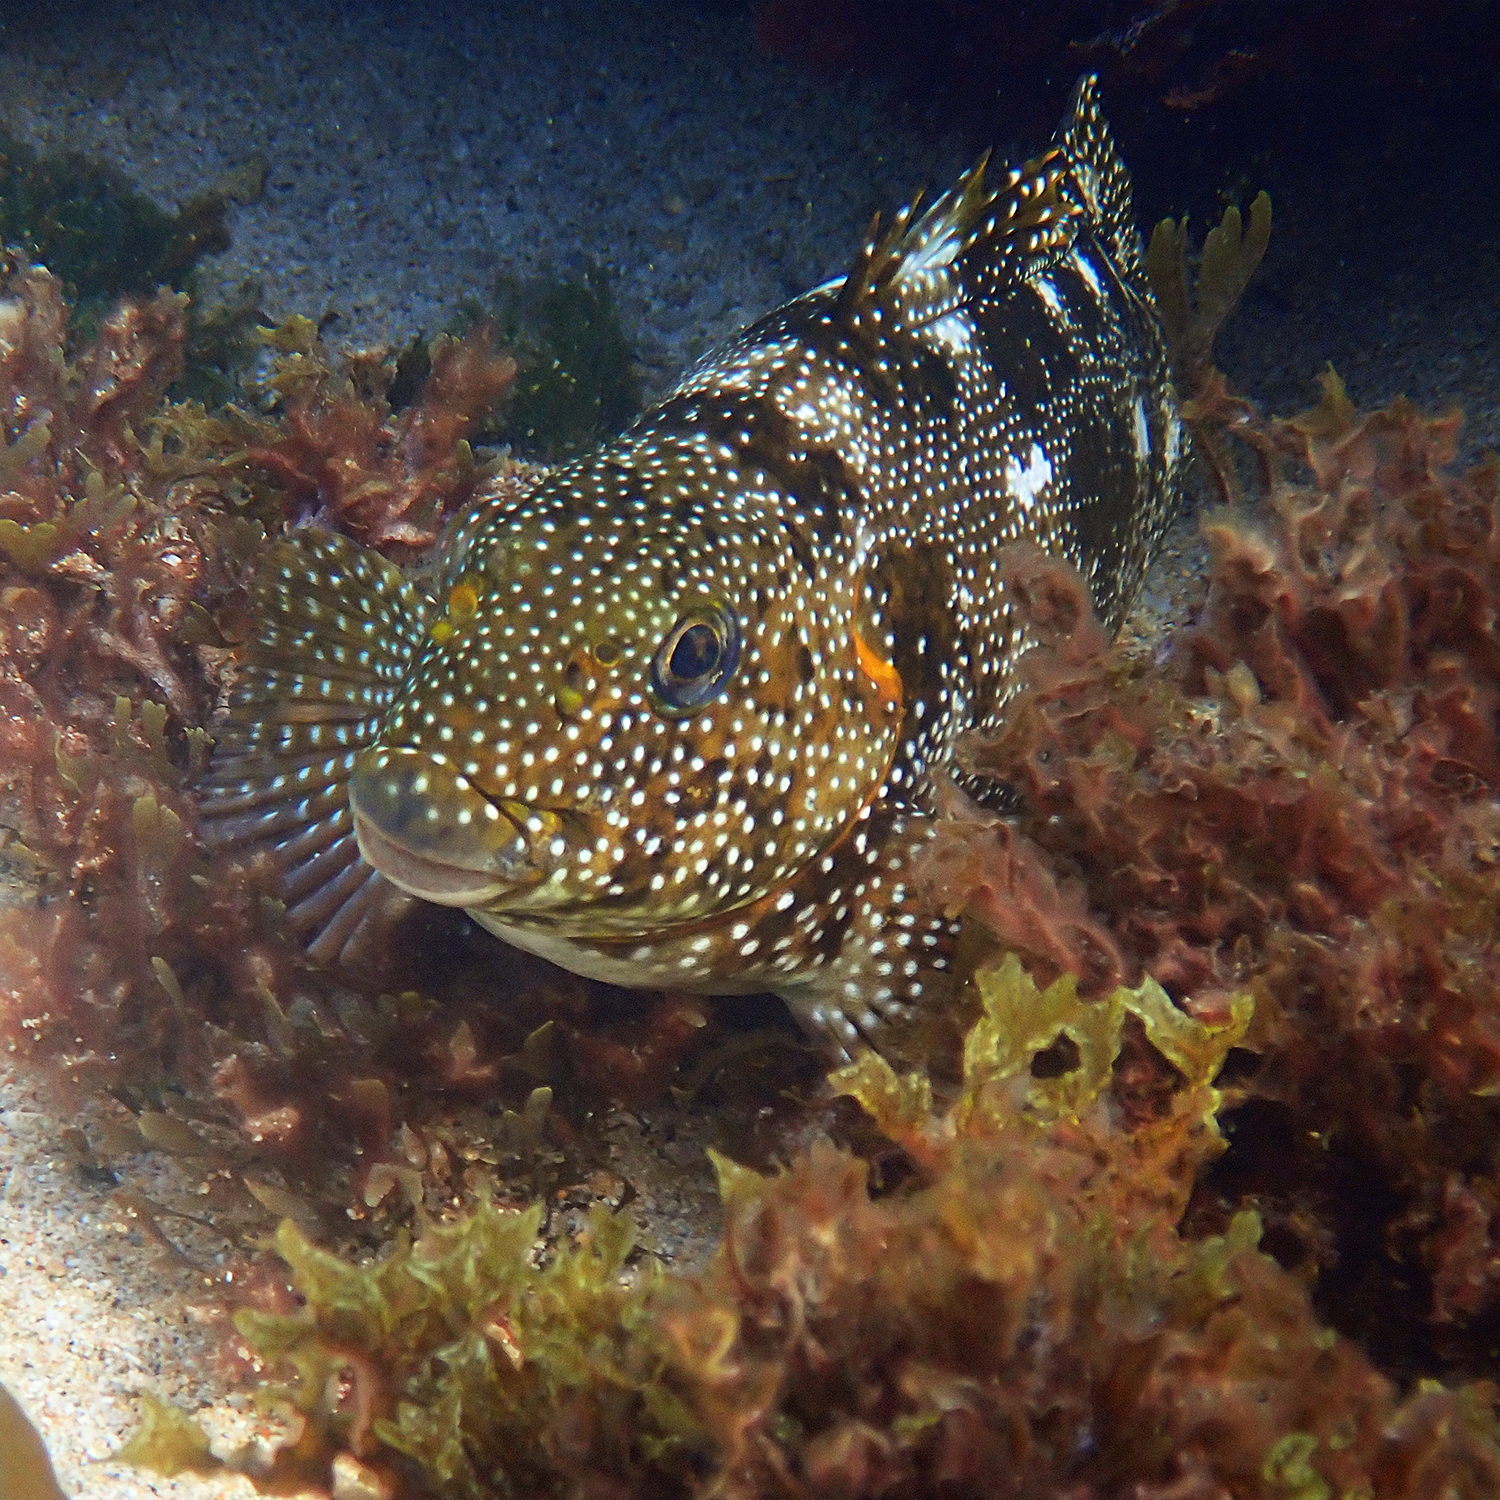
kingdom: Animalia
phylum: Chordata
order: Perciformes
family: Aplodactylidae
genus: Aplodactylus
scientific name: Aplodactylus etheridgii
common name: Notchheaded marblefish
